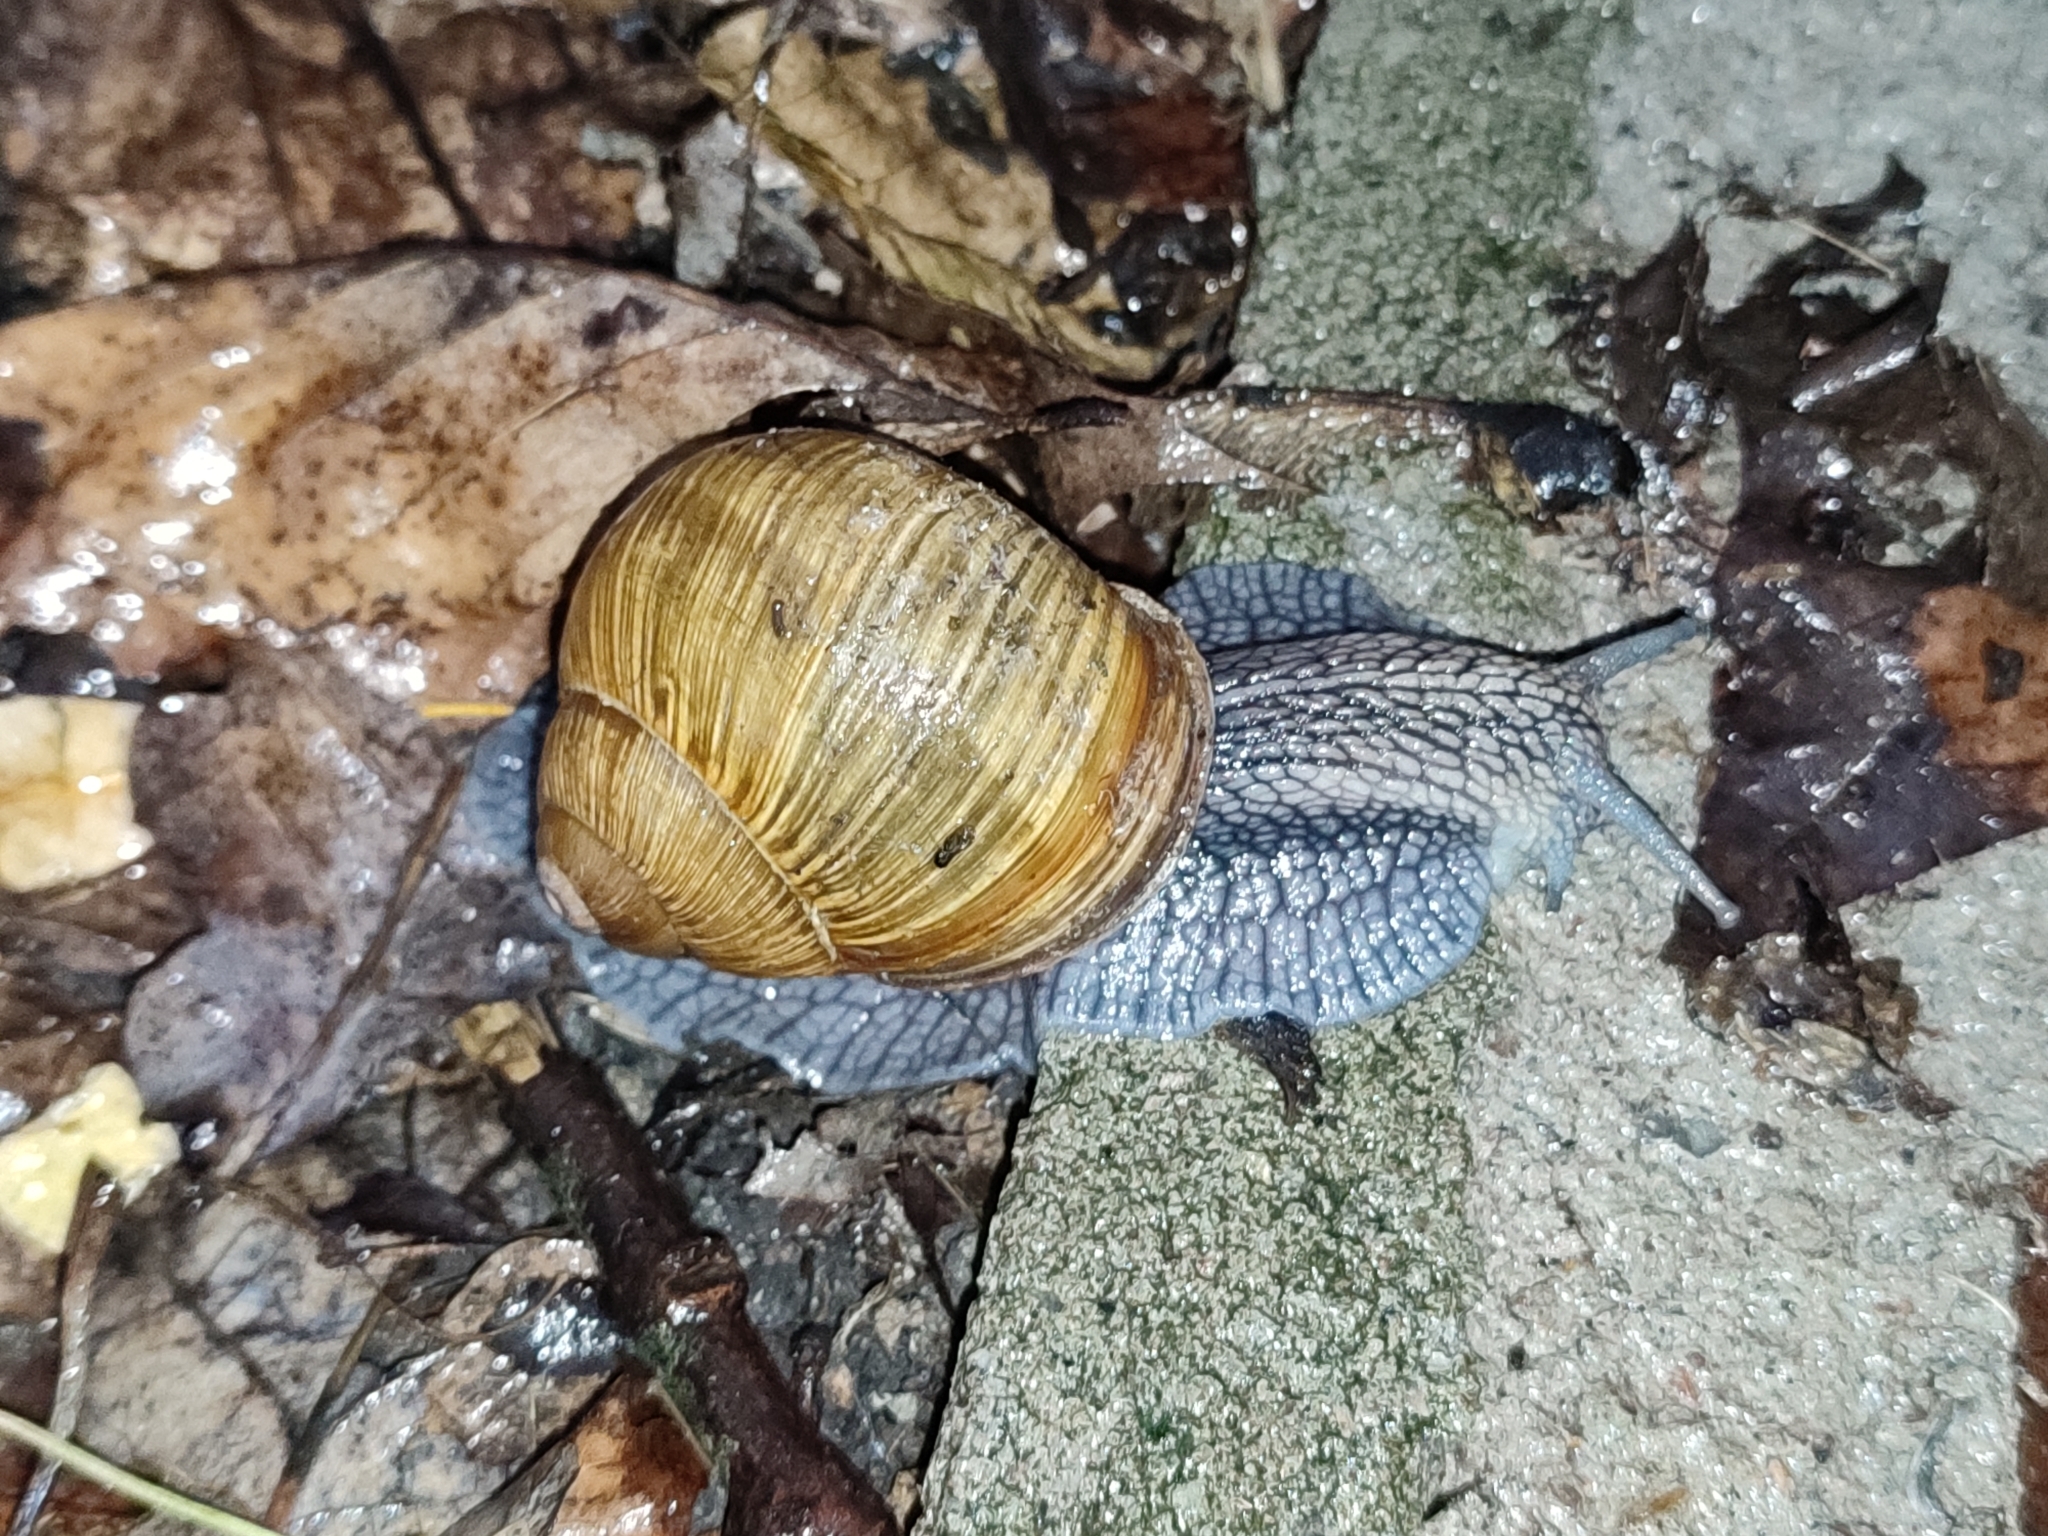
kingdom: Animalia
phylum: Mollusca
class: Gastropoda
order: Stylommatophora
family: Helicidae
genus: Helix
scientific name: Helix pomatia
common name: Roman snail
